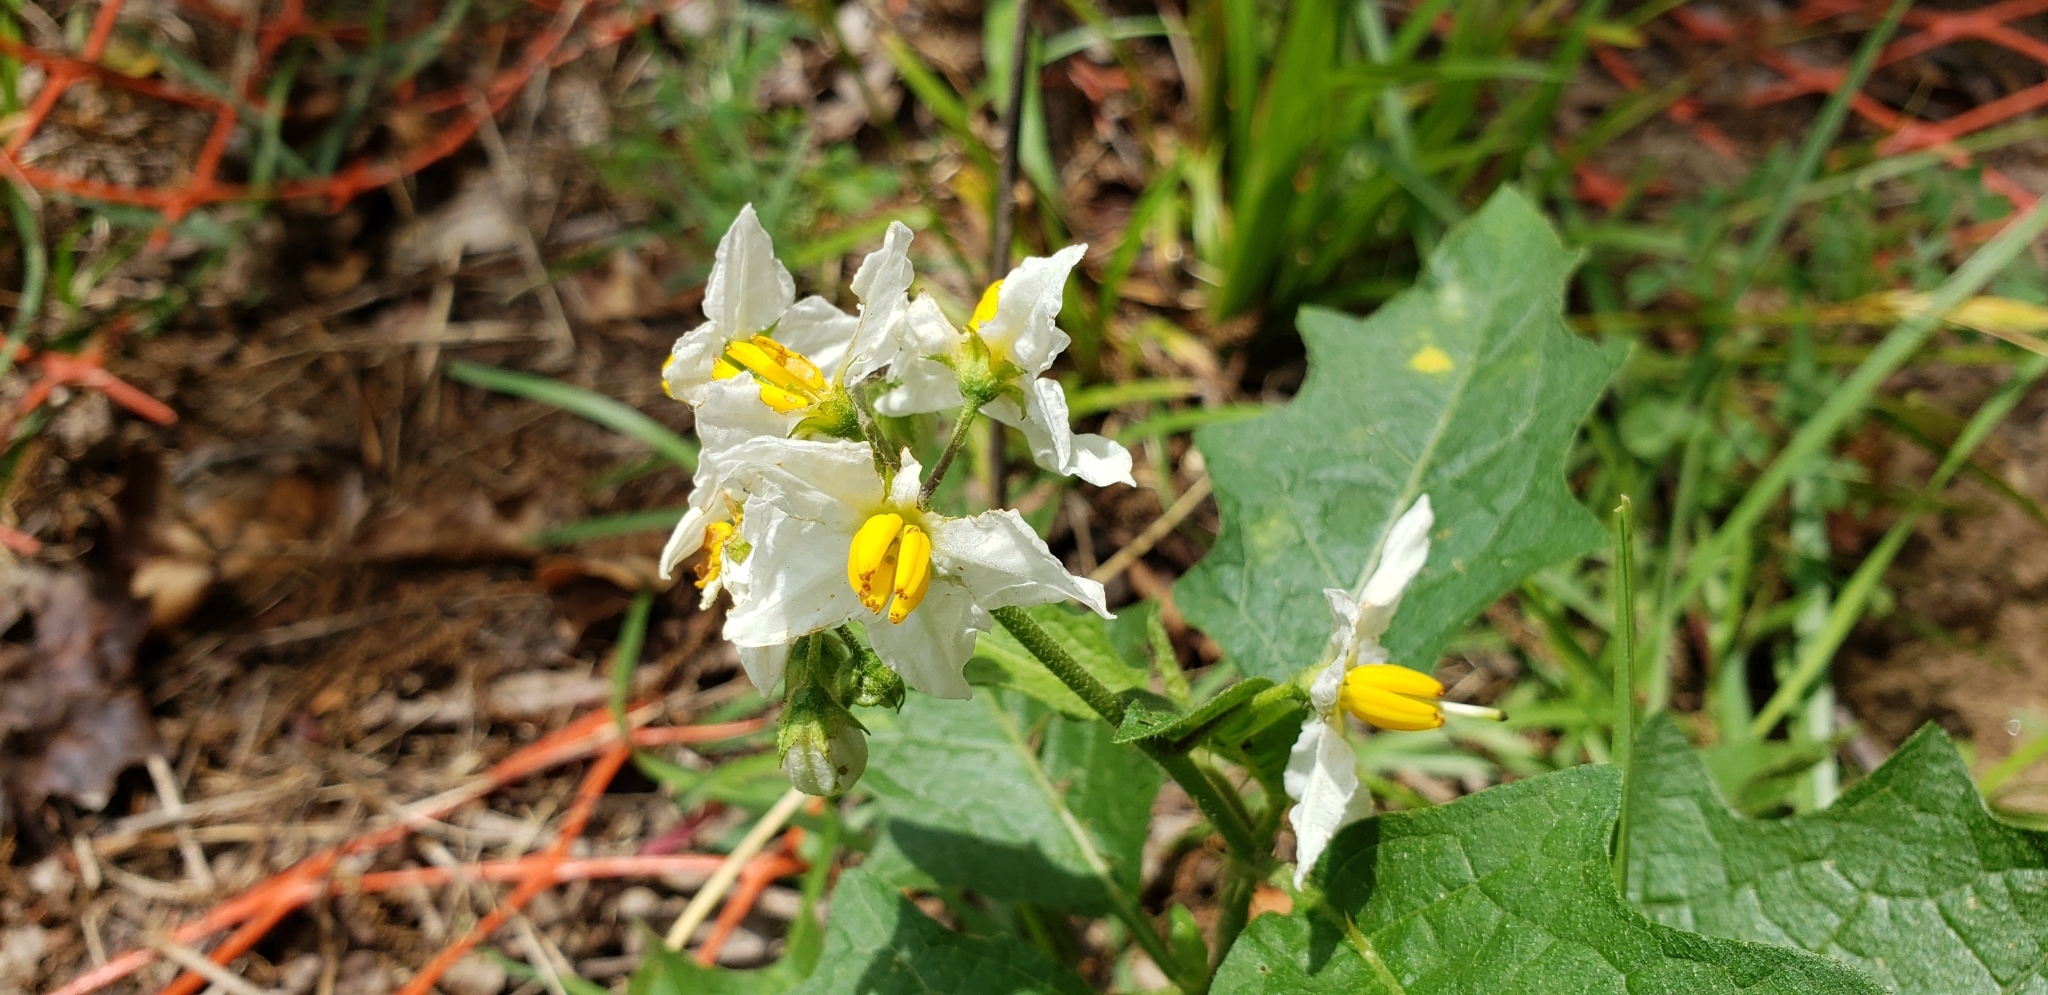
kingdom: Plantae
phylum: Tracheophyta
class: Magnoliopsida
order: Solanales
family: Solanaceae
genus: Solanum
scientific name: Solanum carolinense
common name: Horse-nettle
